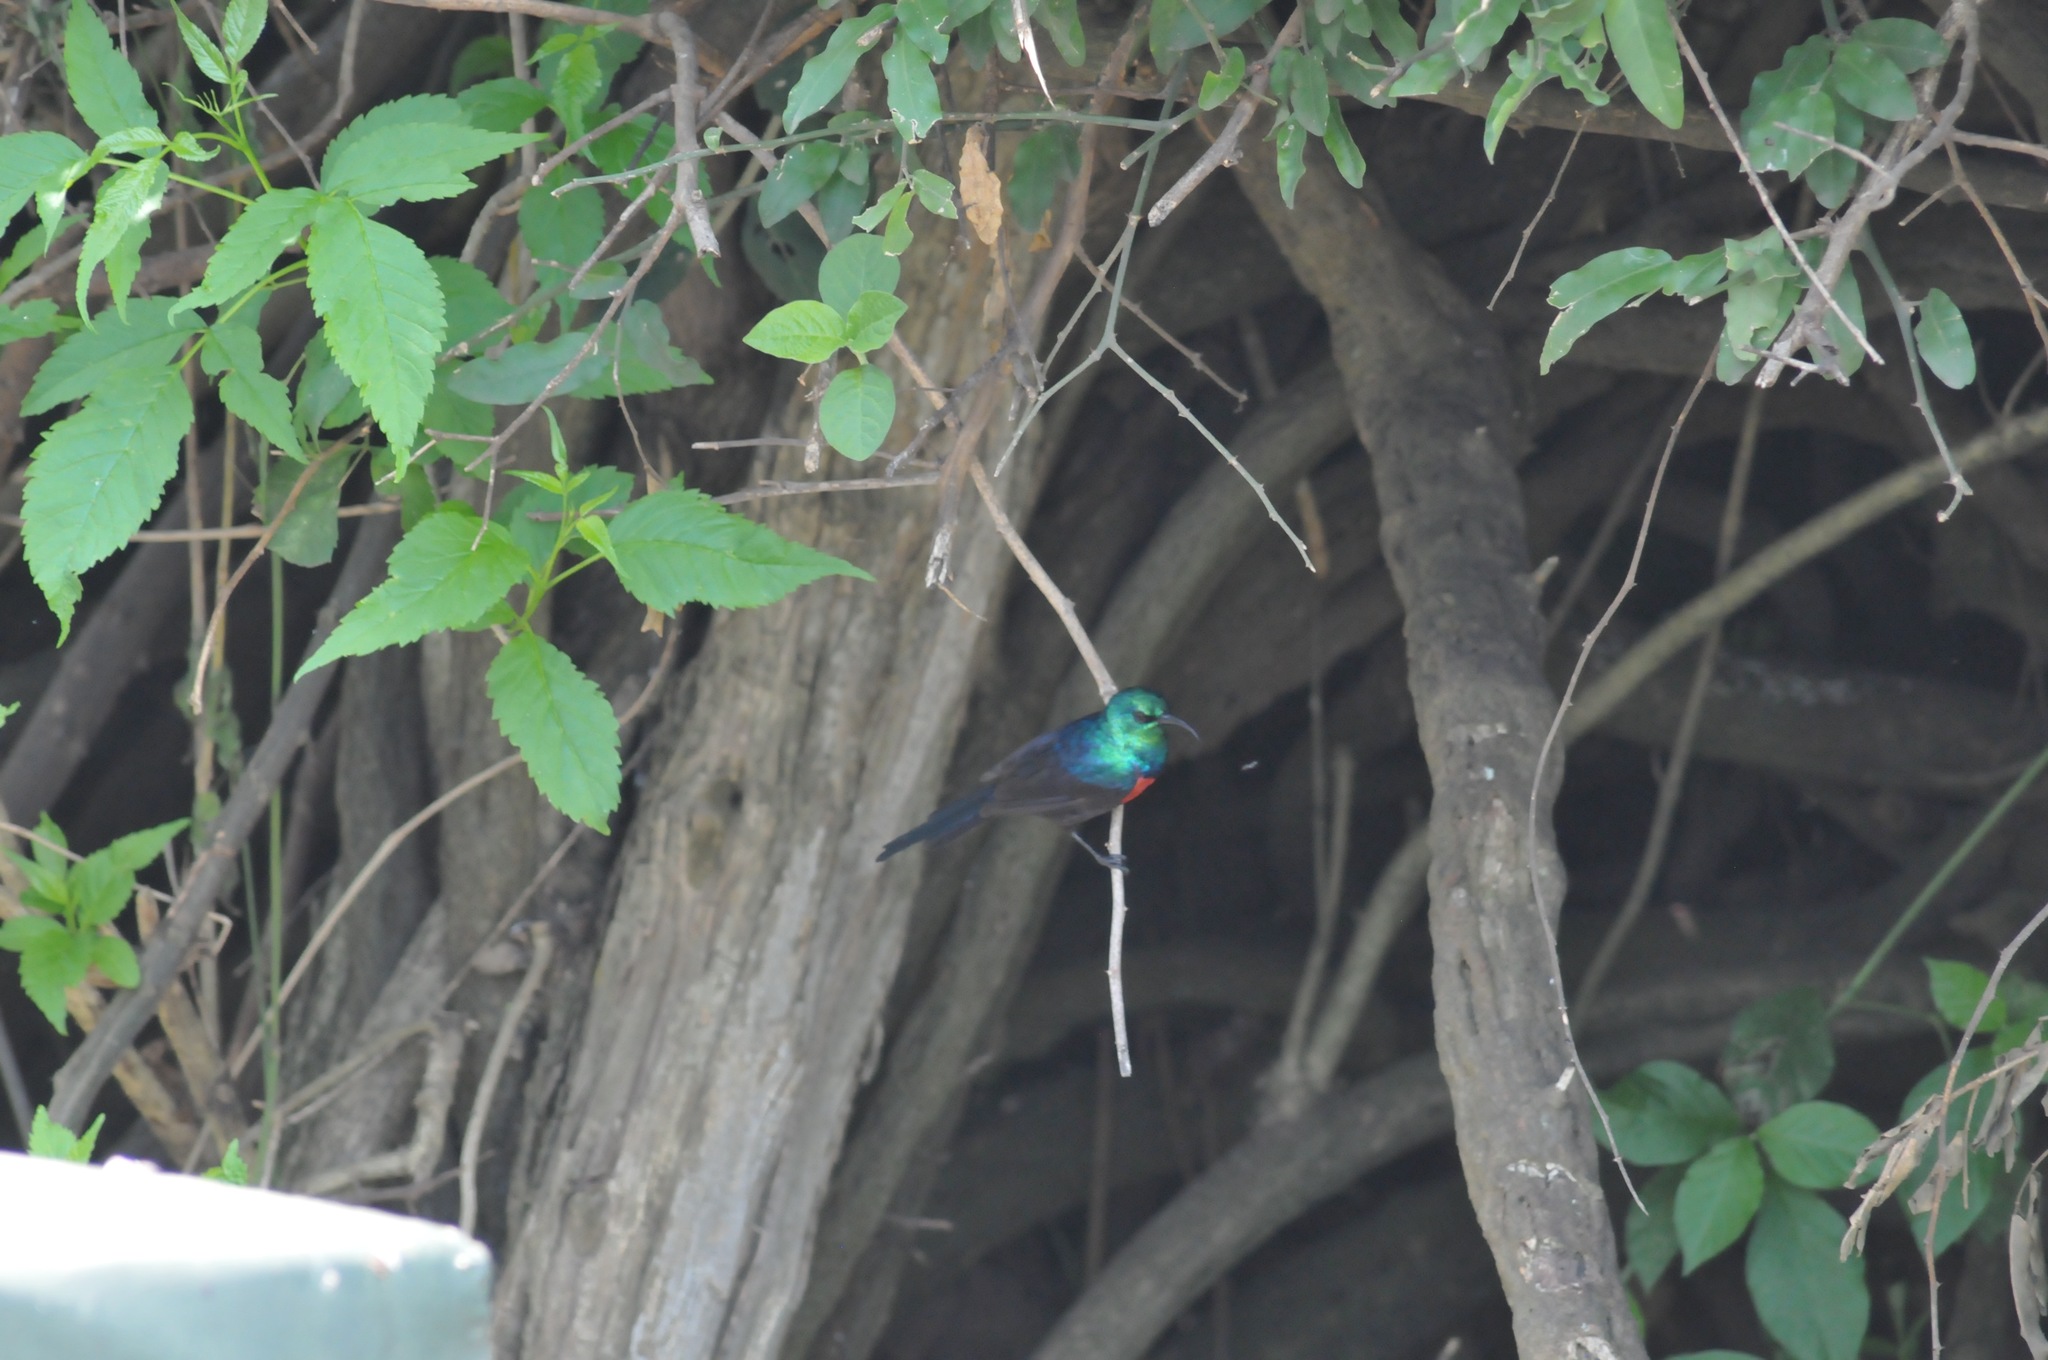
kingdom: Animalia
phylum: Chordata
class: Aves
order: Passeriformes
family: Nectariniidae
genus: Cinnyris
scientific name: Cinnyris erythrocercus
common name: Red-chested sunbird
